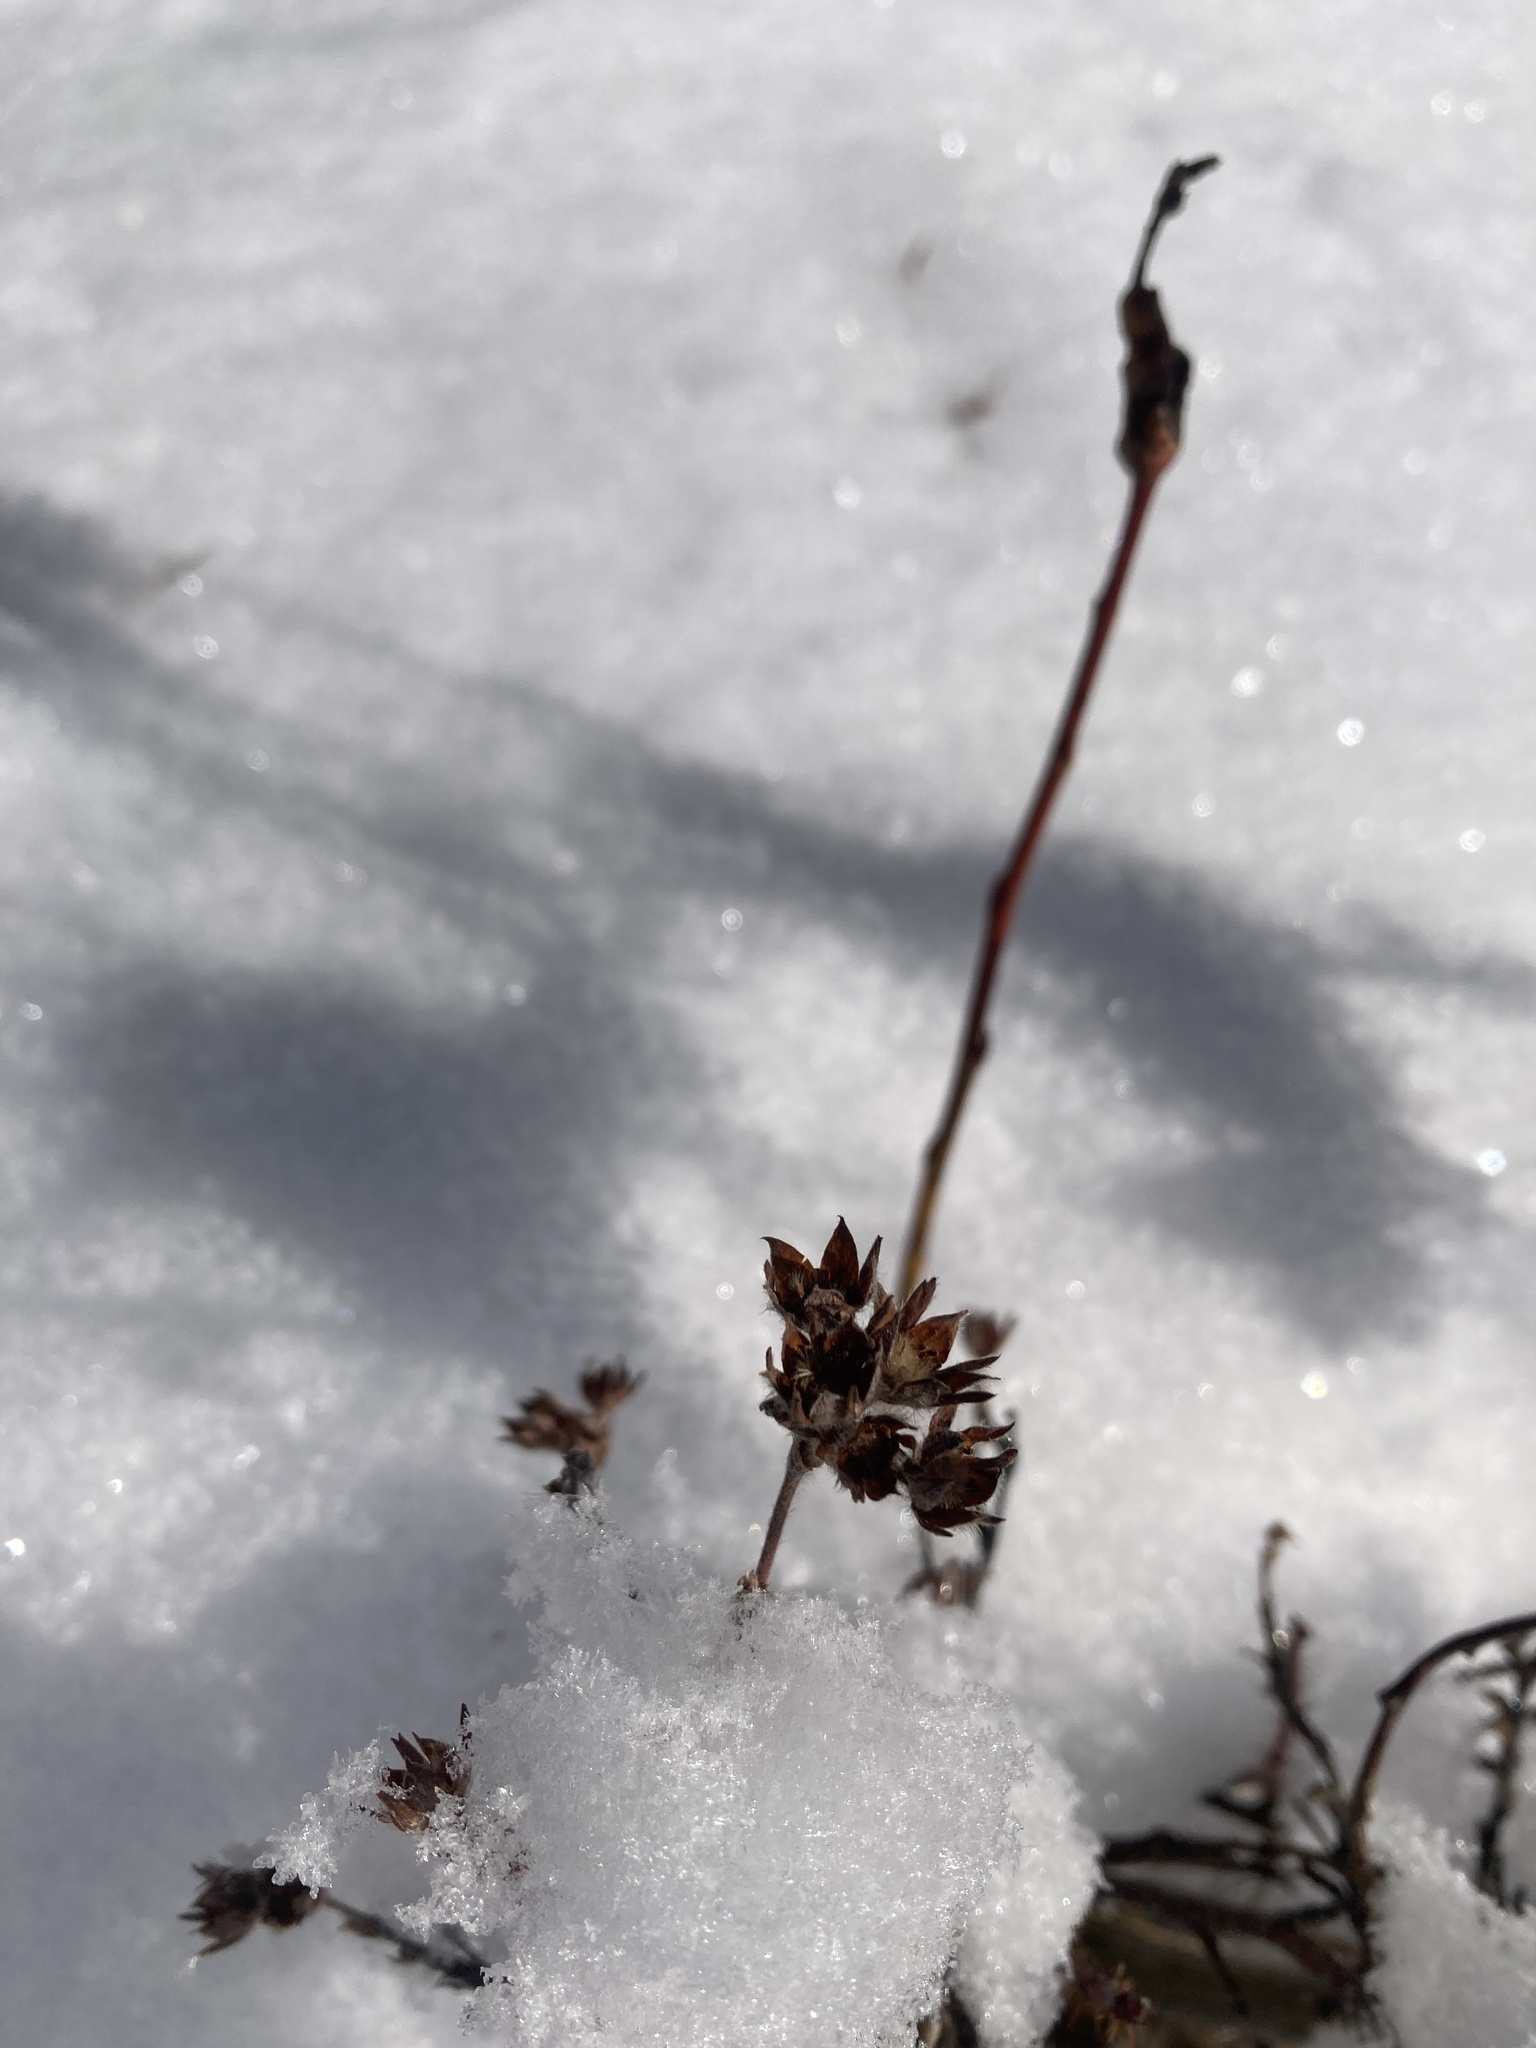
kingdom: Plantae
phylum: Tracheophyta
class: Magnoliopsida
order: Rosales
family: Rosaceae
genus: Dasiphora
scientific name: Dasiphora fruticosa
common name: Shrubby cinquefoil
